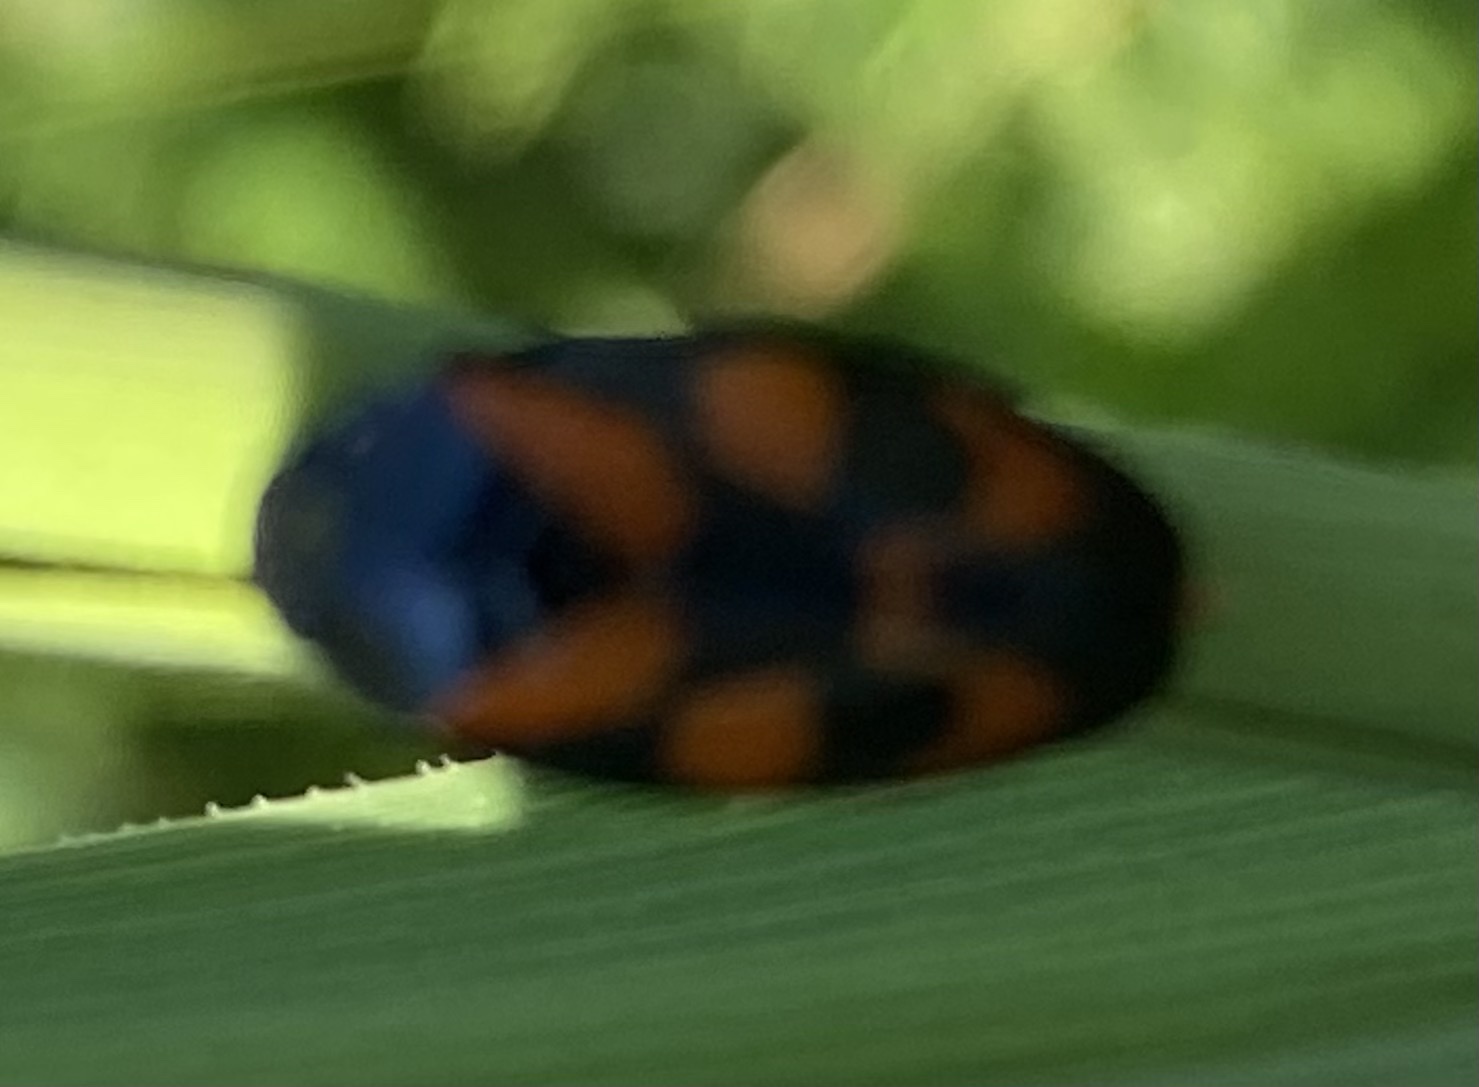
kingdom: Animalia
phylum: Arthropoda
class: Insecta
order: Hemiptera
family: Cercopidae
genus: Cercopis
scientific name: Cercopis vulnerata
